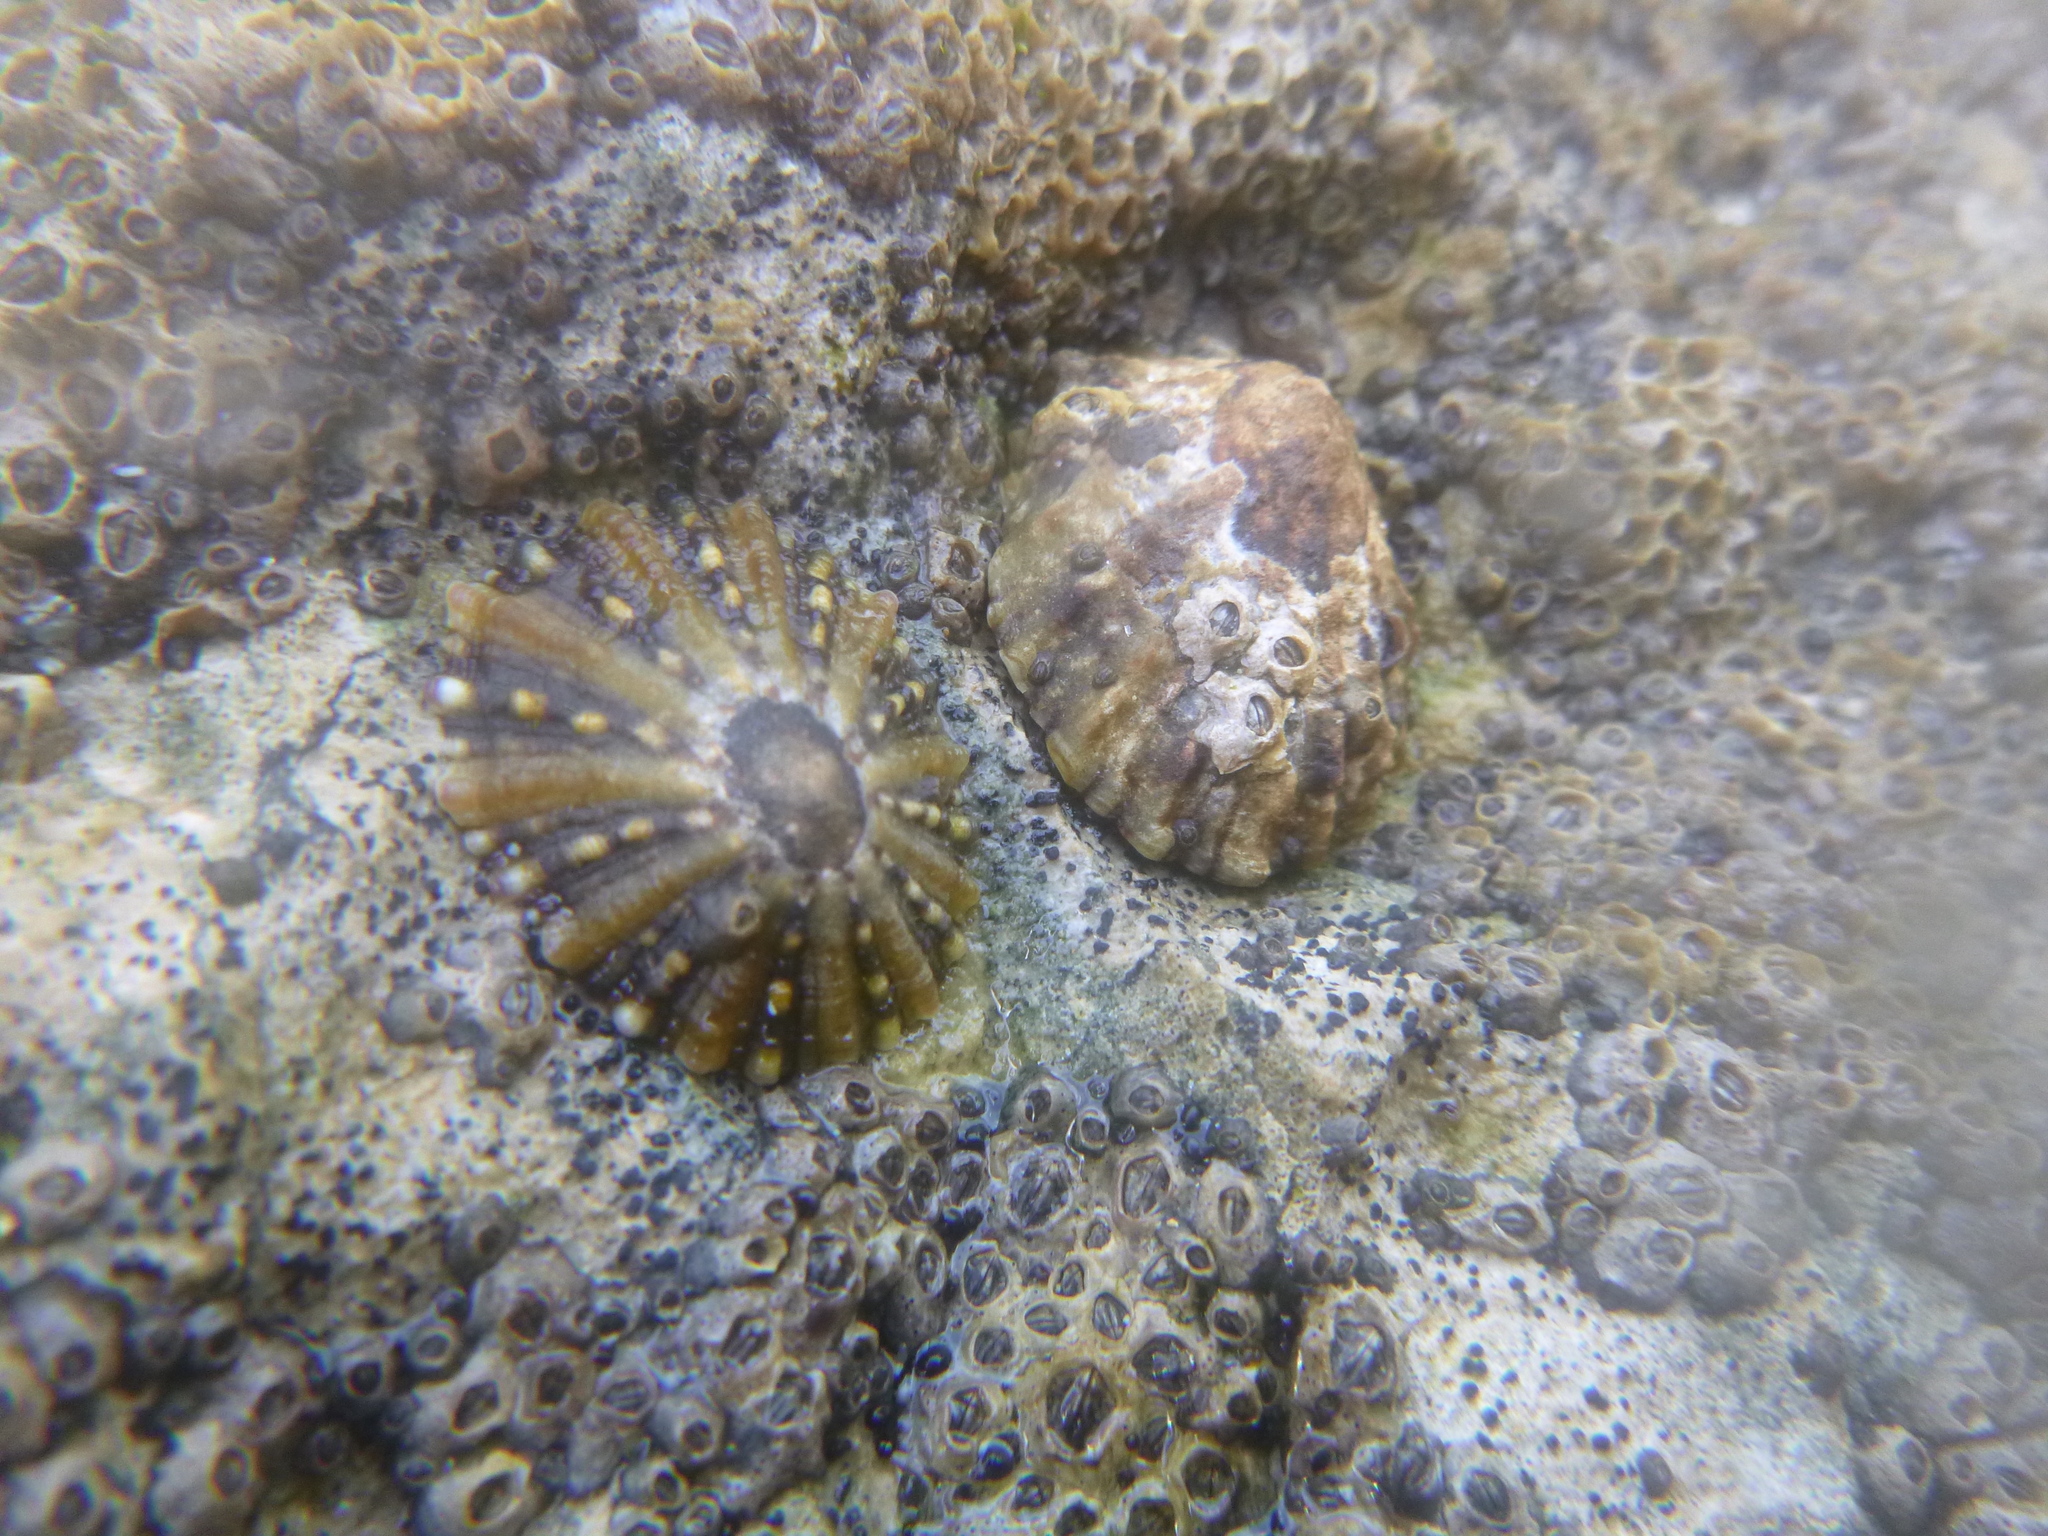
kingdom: Animalia
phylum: Mollusca
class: Gastropoda
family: Nacellidae
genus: Cellana
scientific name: Cellana ornata
